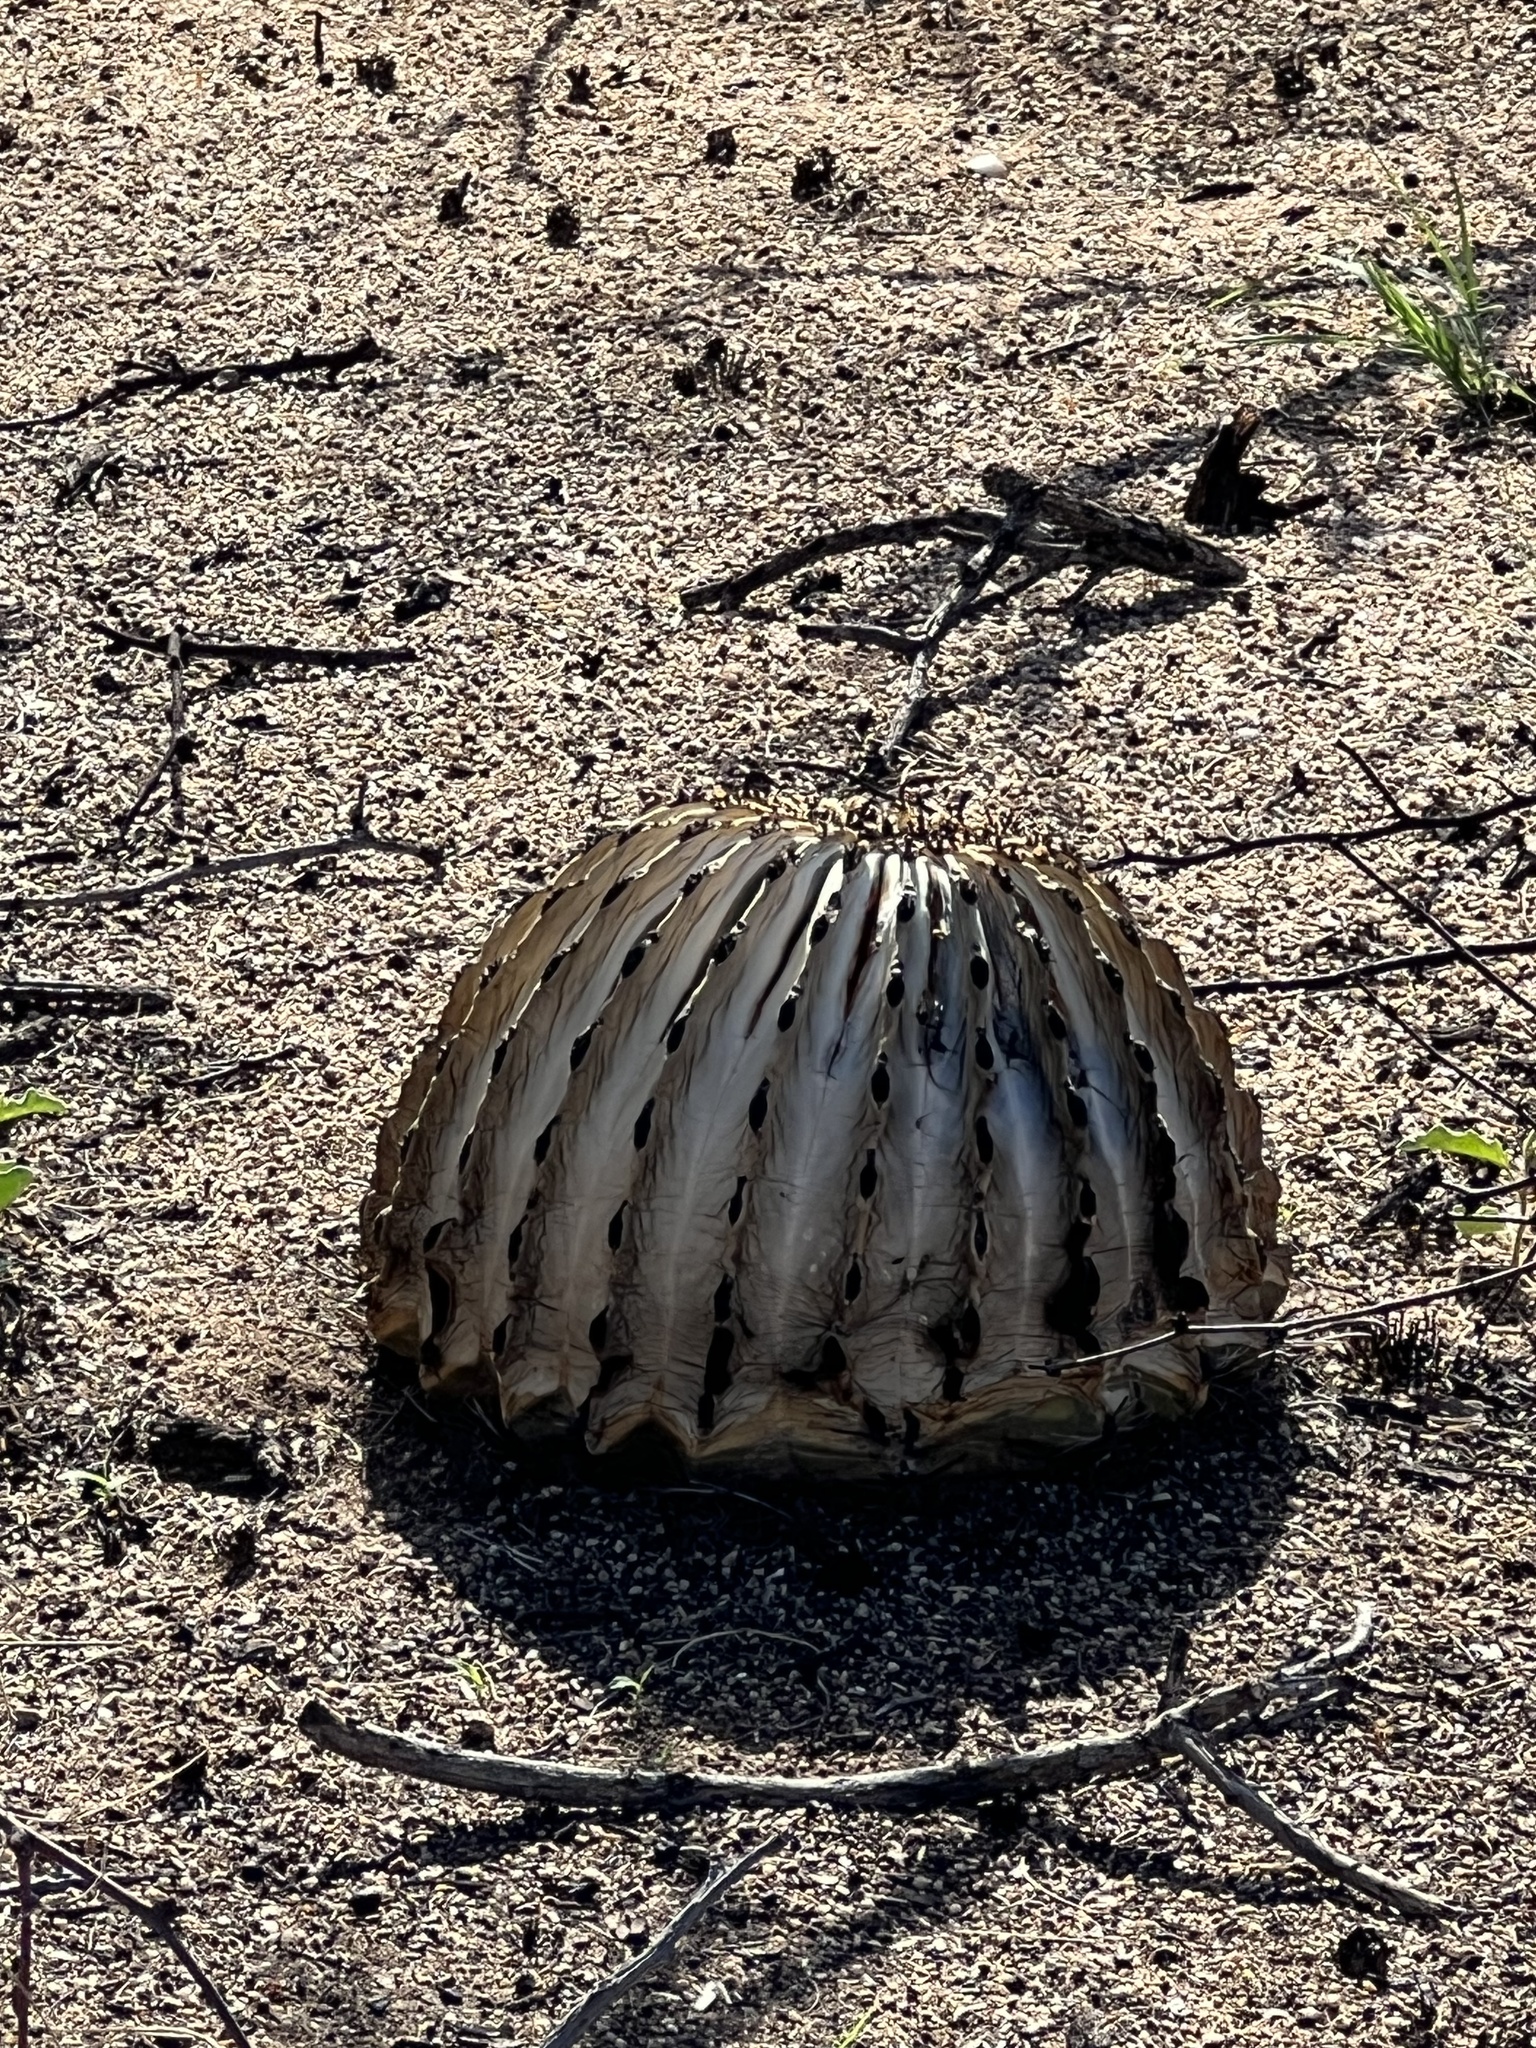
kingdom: Plantae
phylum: Tracheophyta
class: Magnoliopsida
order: Caryophyllales
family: Cactaceae
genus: Ferocactus
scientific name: Ferocactus wislizeni
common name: Candy barrel cactus
